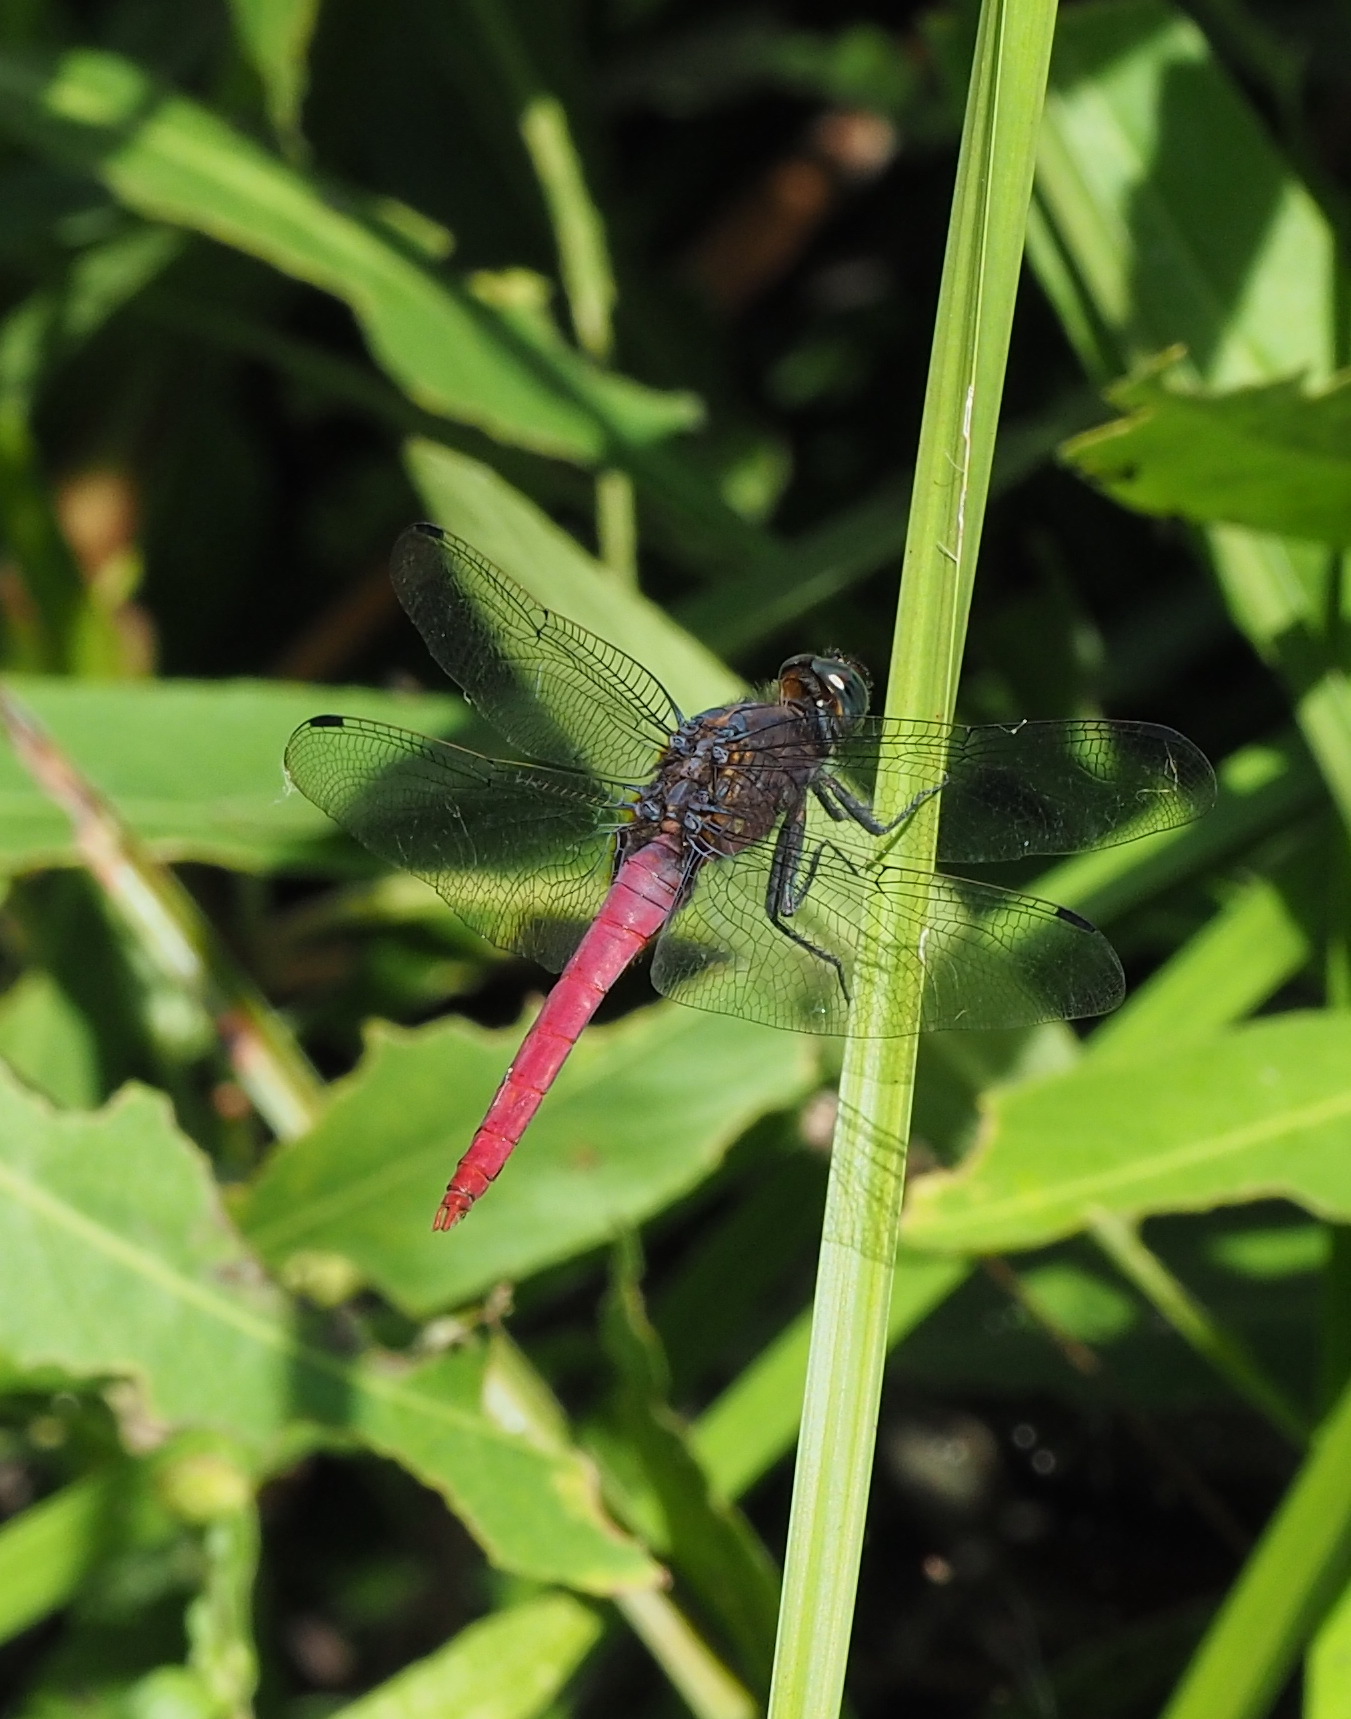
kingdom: Animalia
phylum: Arthropoda
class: Insecta
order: Odonata
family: Libellulidae
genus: Orthetrum
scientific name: Orthetrum pruinosum
